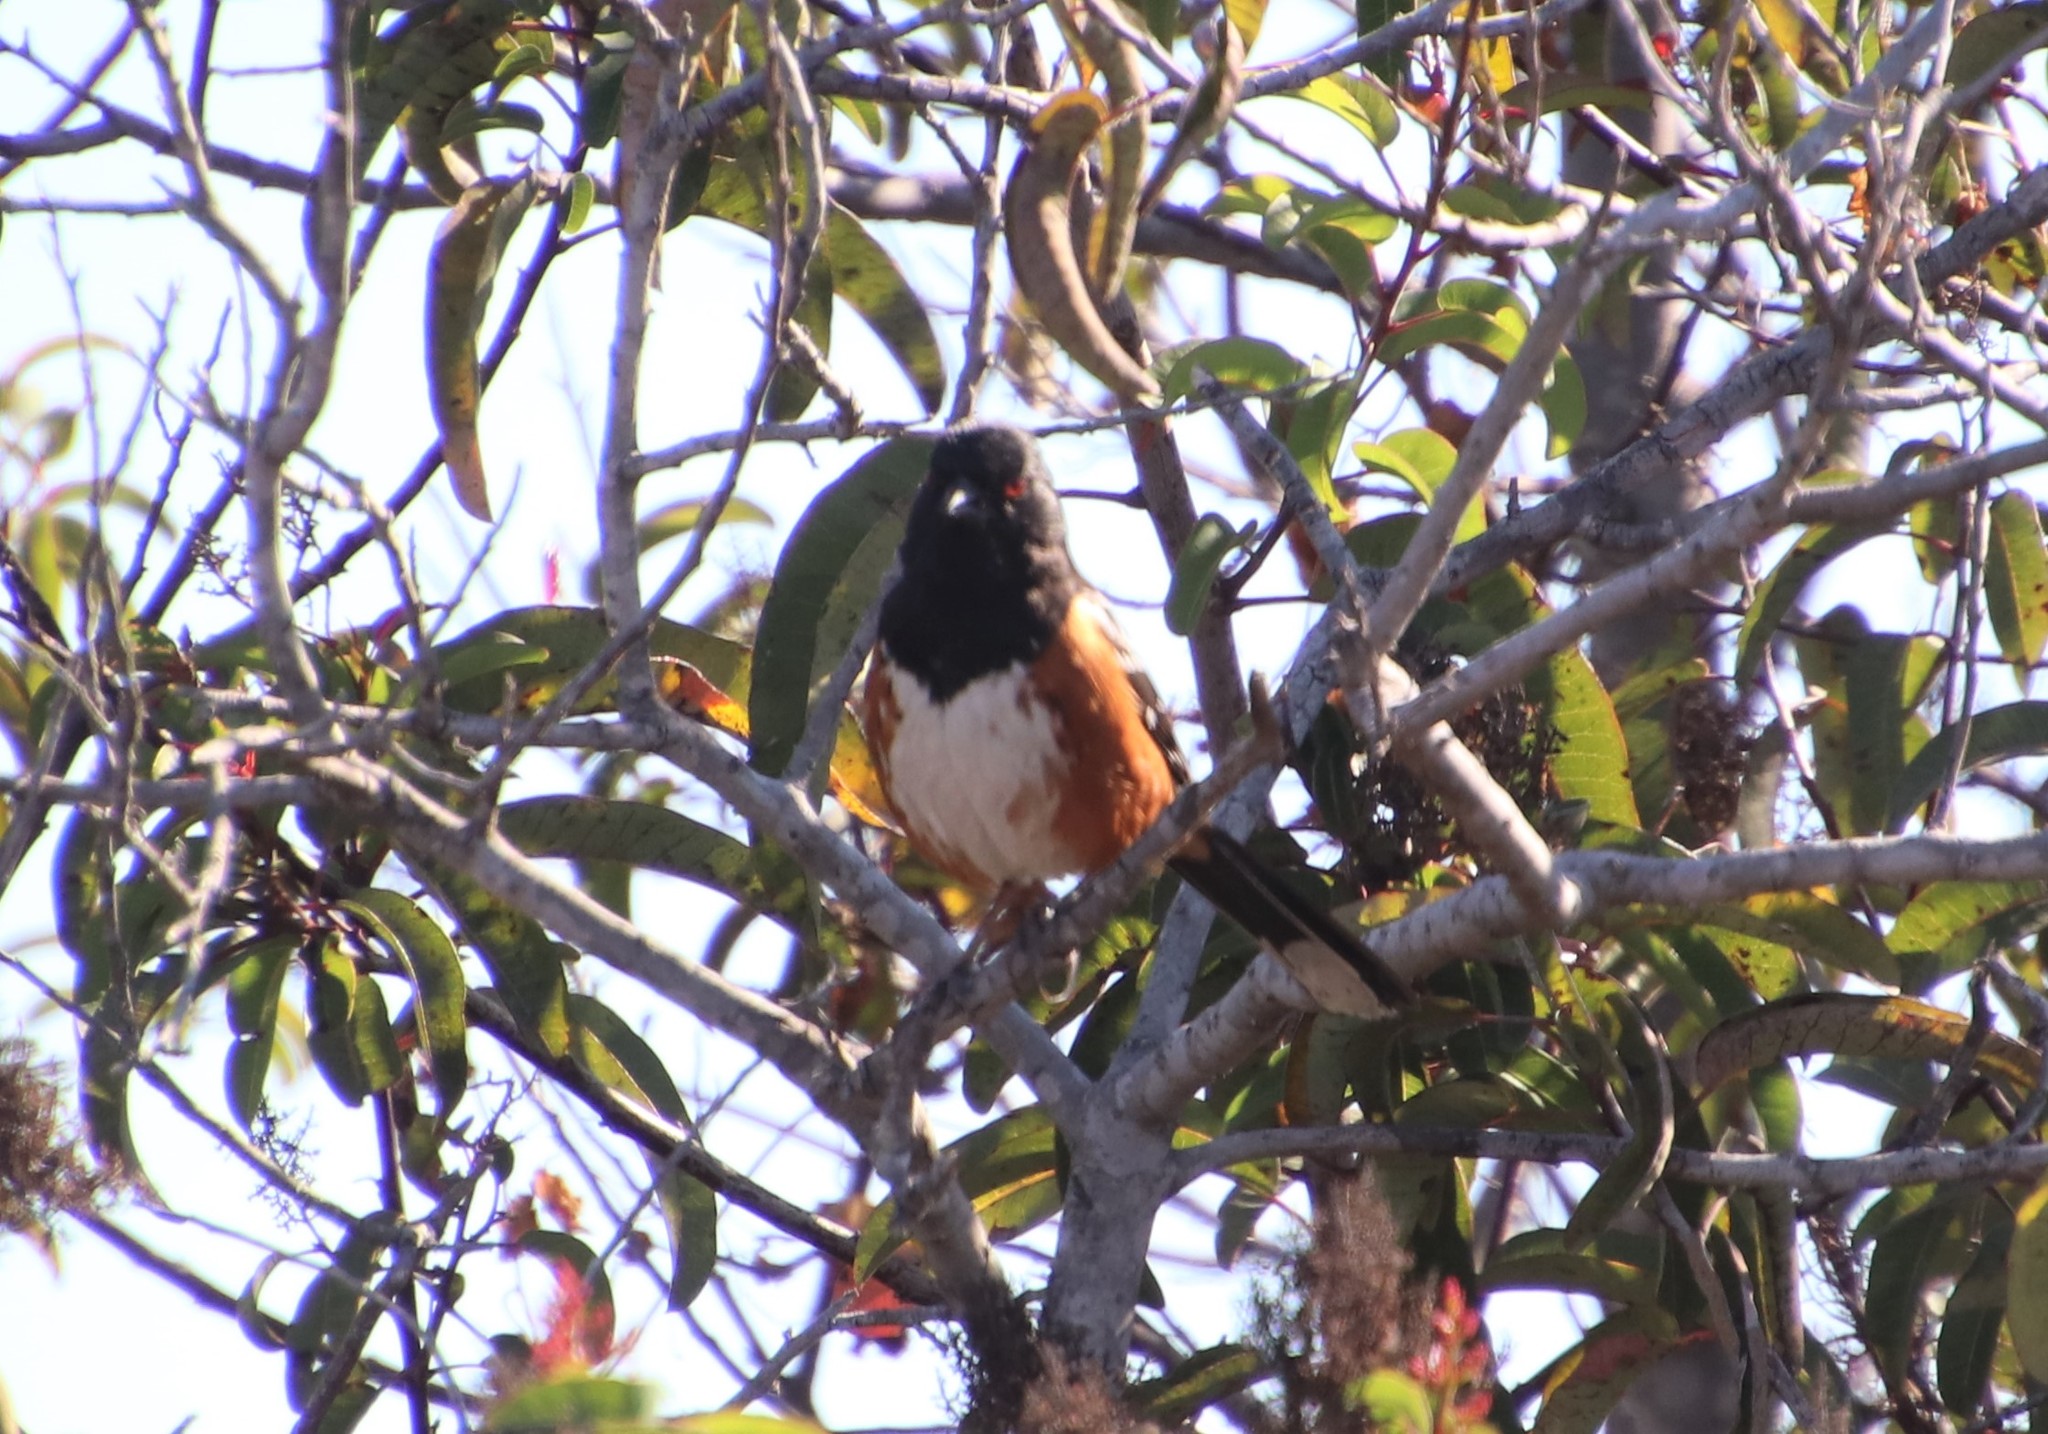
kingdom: Animalia
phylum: Chordata
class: Aves
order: Passeriformes
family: Passerellidae
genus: Pipilo
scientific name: Pipilo maculatus
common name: Spotted towhee
